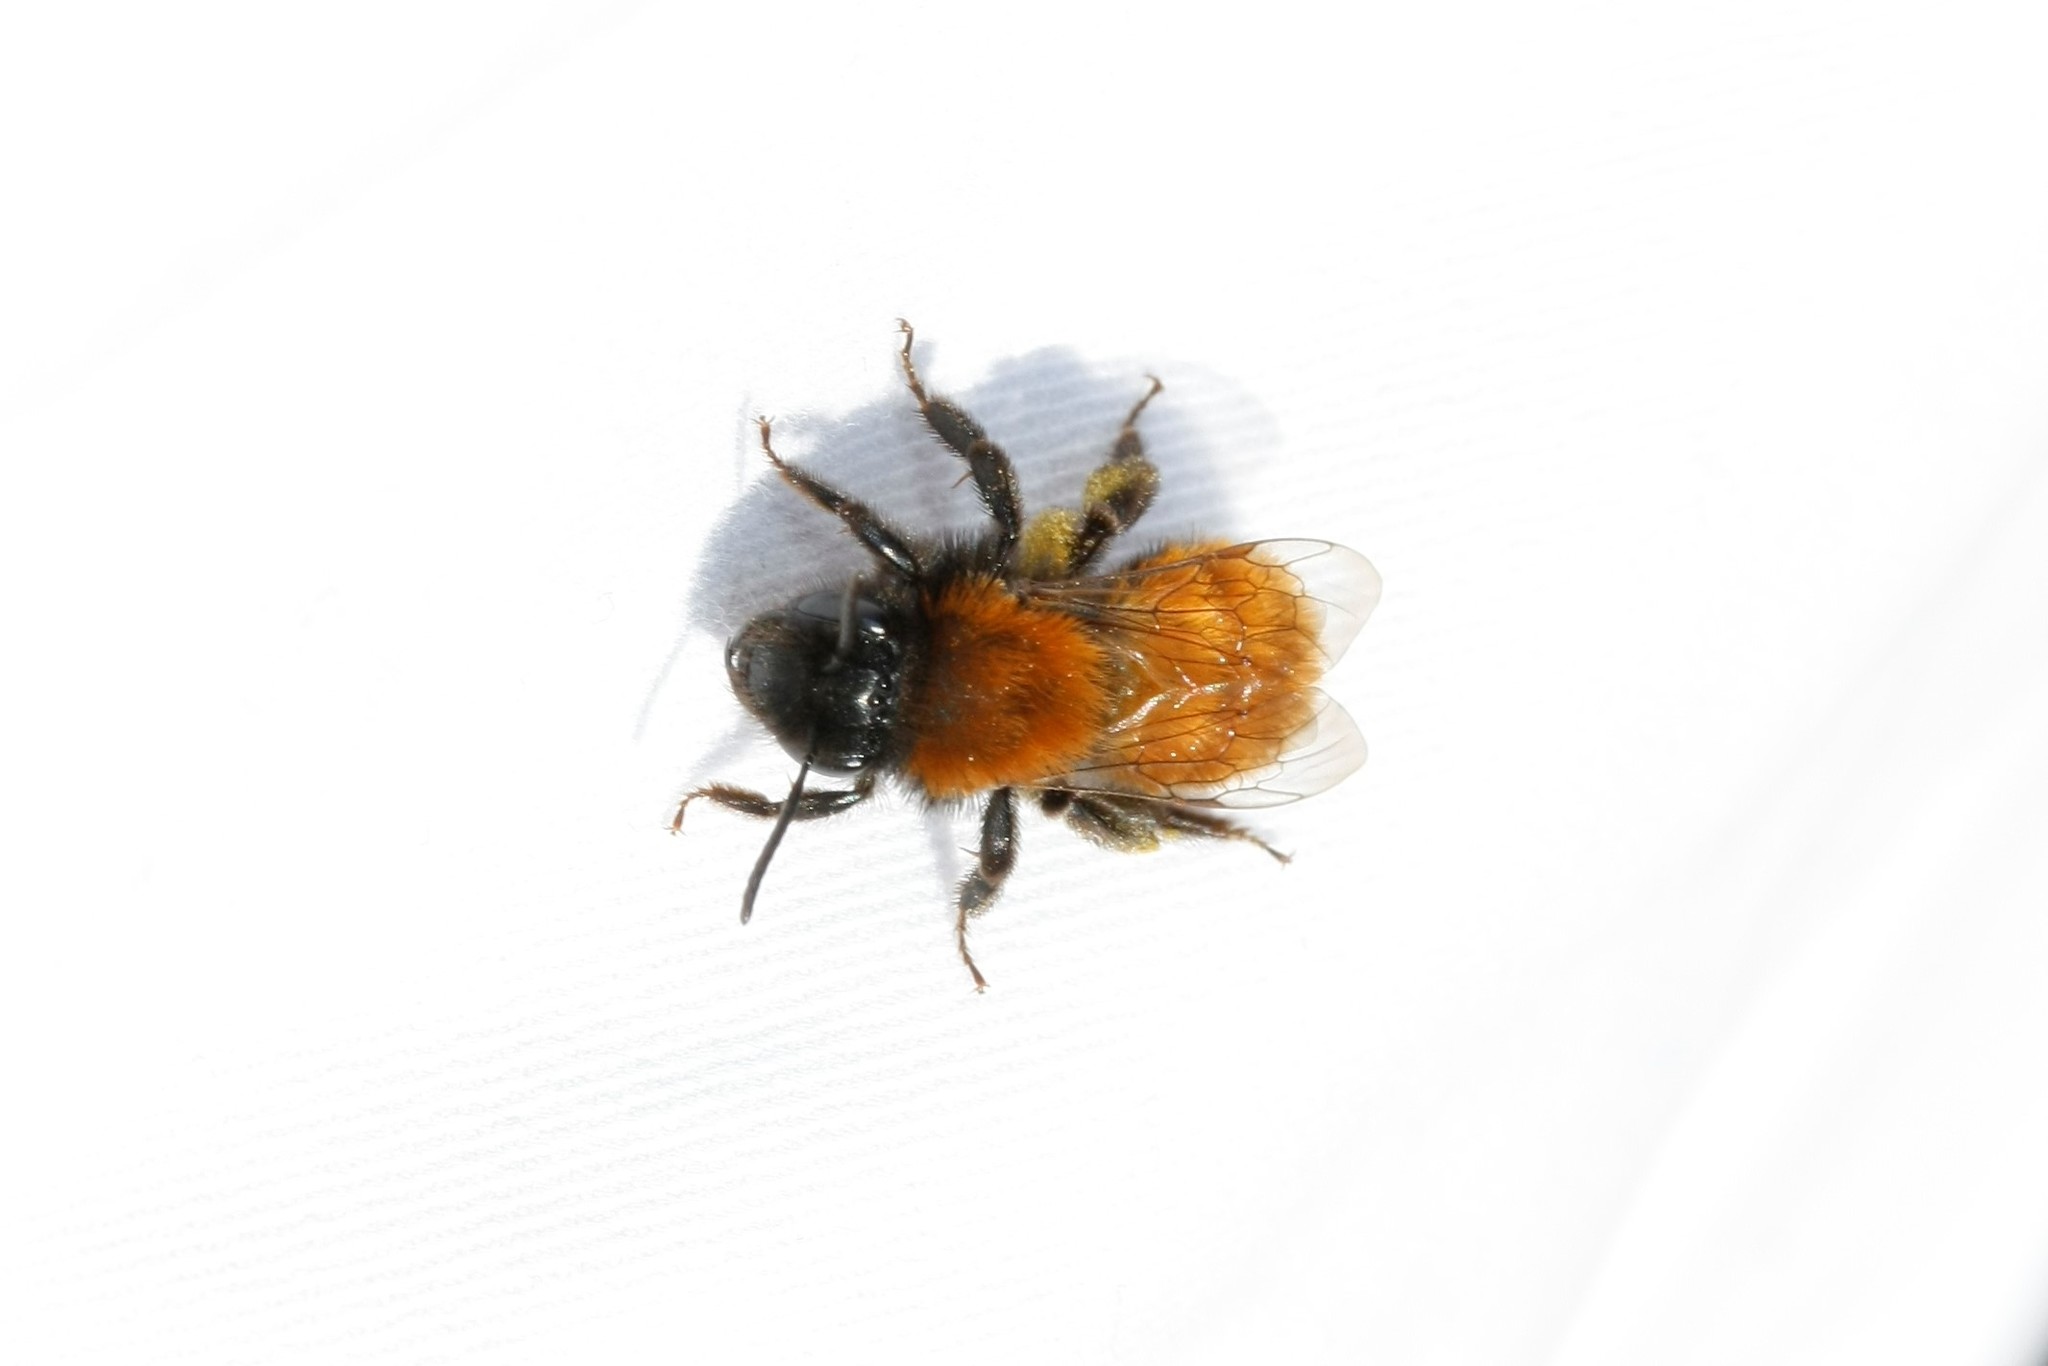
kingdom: Animalia
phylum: Arthropoda
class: Insecta
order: Hymenoptera
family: Andrenidae
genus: Andrena
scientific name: Andrena fulva
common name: Tawny mining bee
